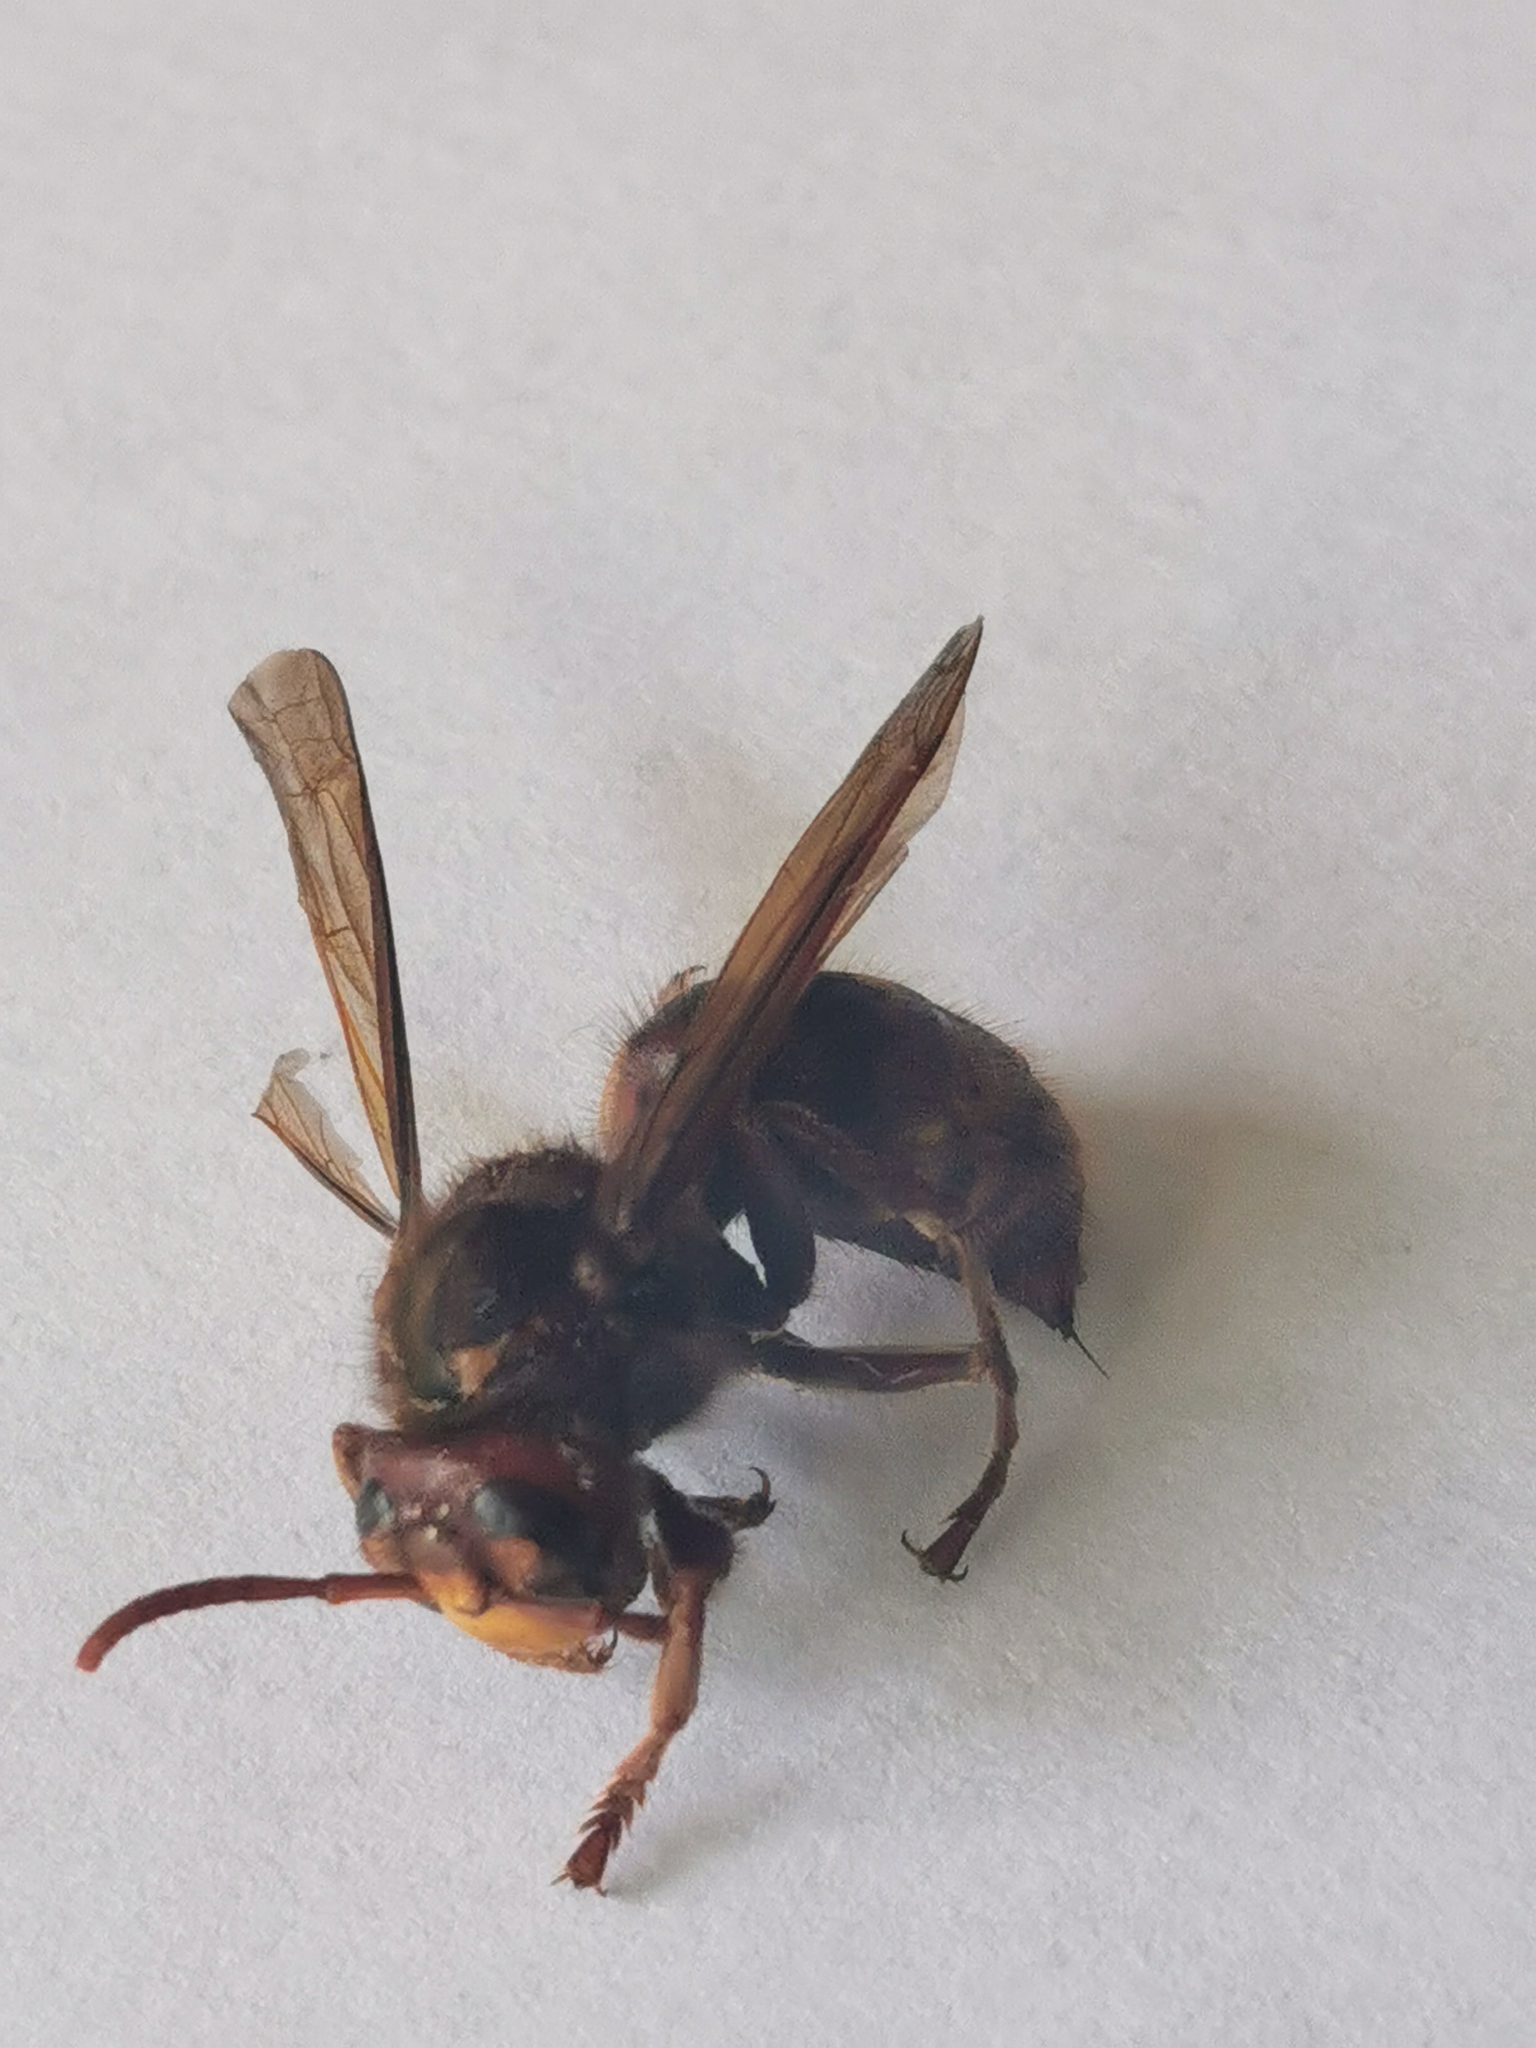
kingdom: Animalia
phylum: Arthropoda
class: Insecta
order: Hymenoptera
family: Vespidae
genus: Vespa
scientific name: Vespa crabro
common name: Hornet
